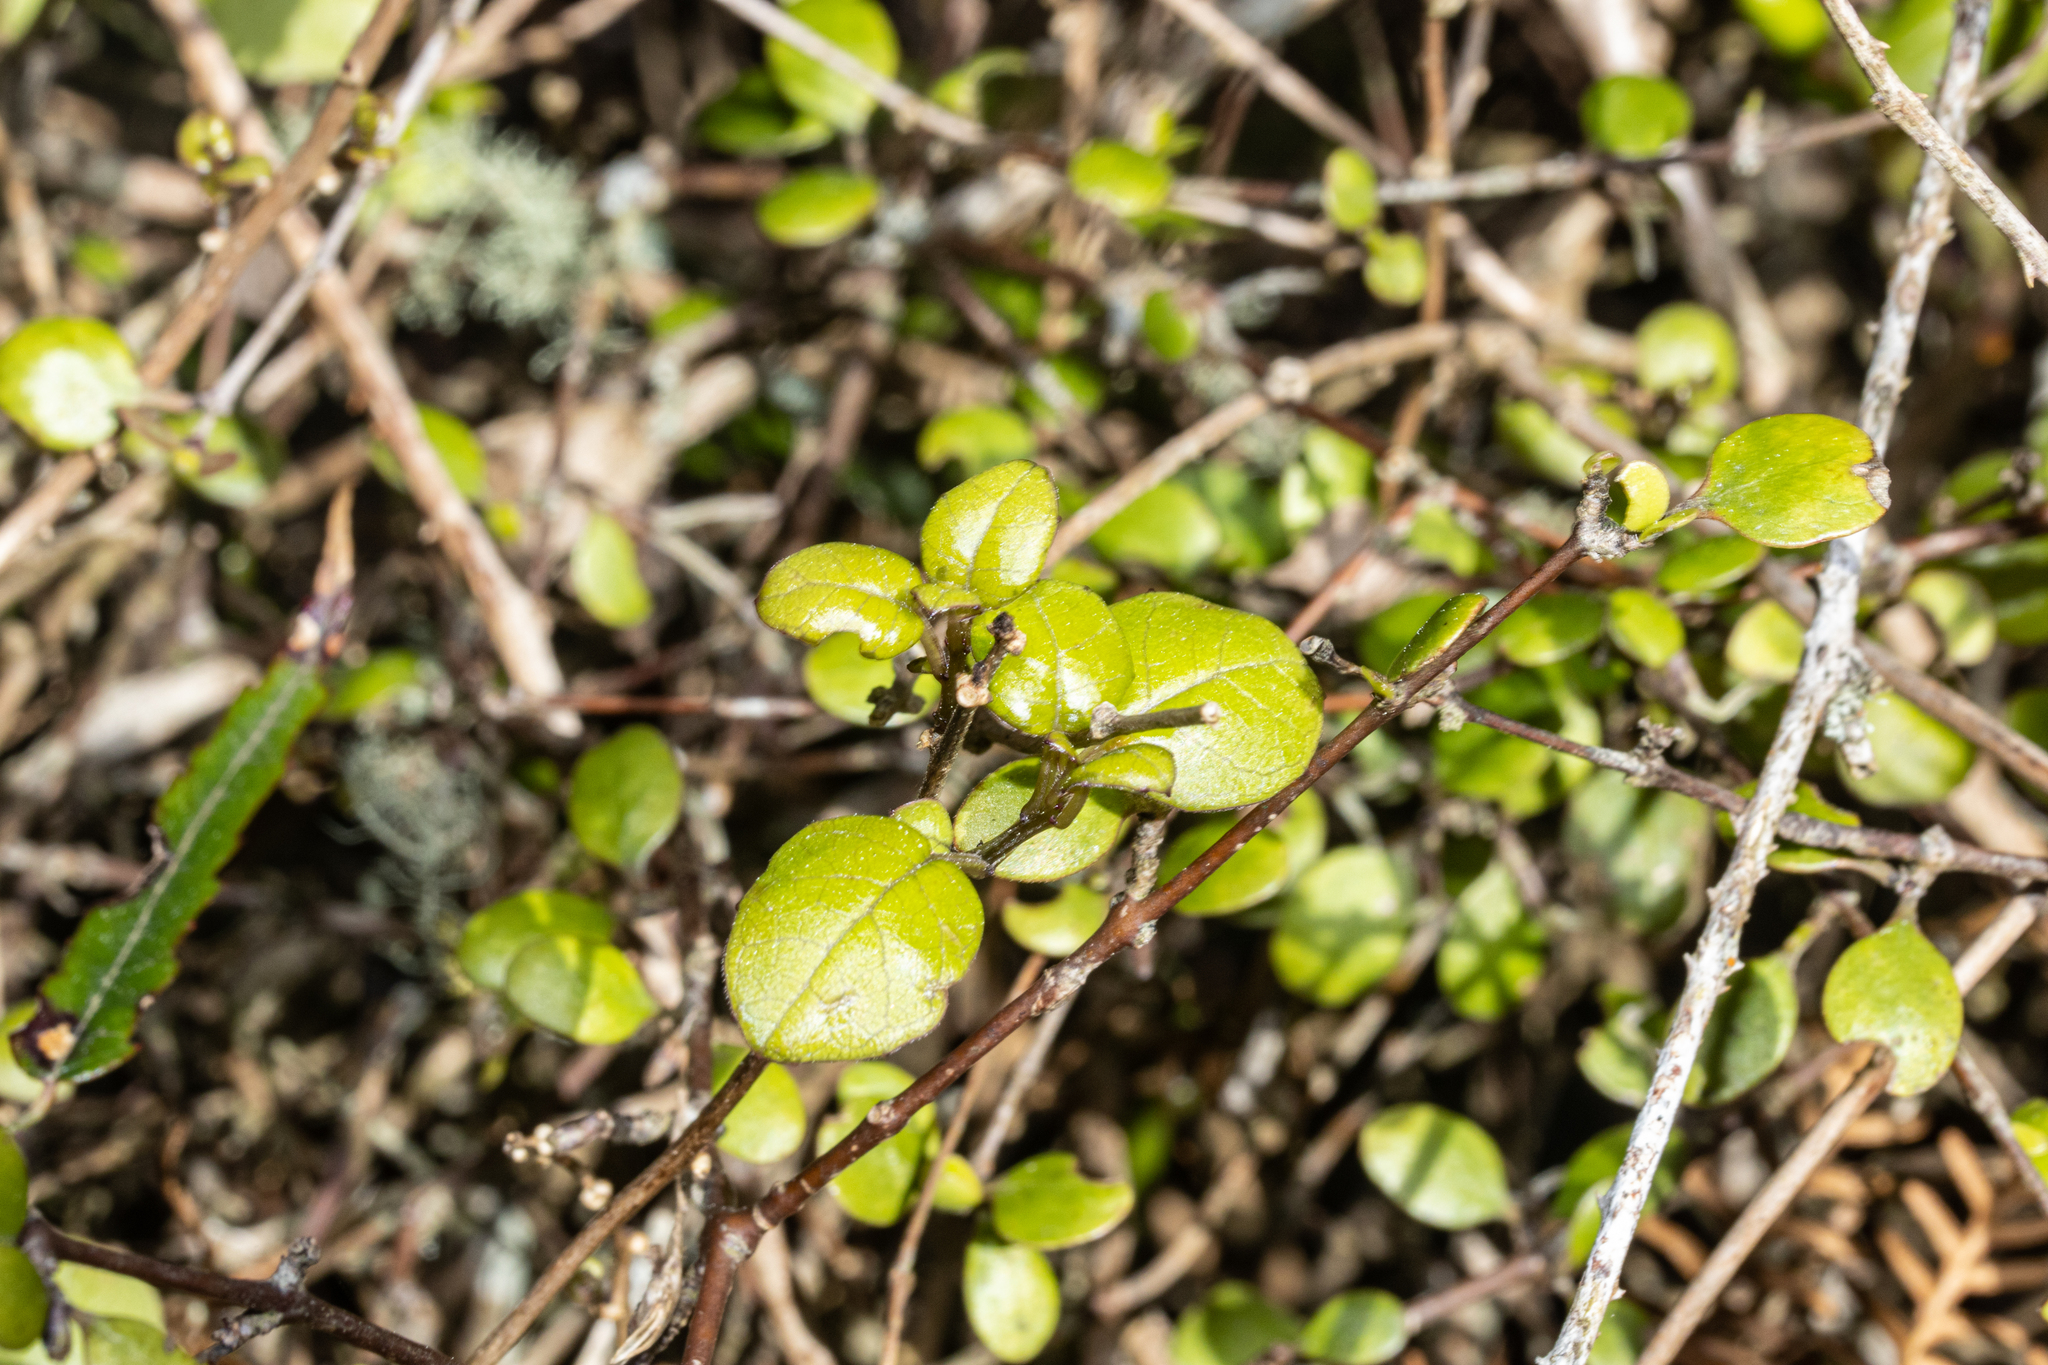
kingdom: Plantae
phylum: Tracheophyta
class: Magnoliopsida
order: Myrtales
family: Onagraceae
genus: Fuchsia
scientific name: Fuchsia perscandens
